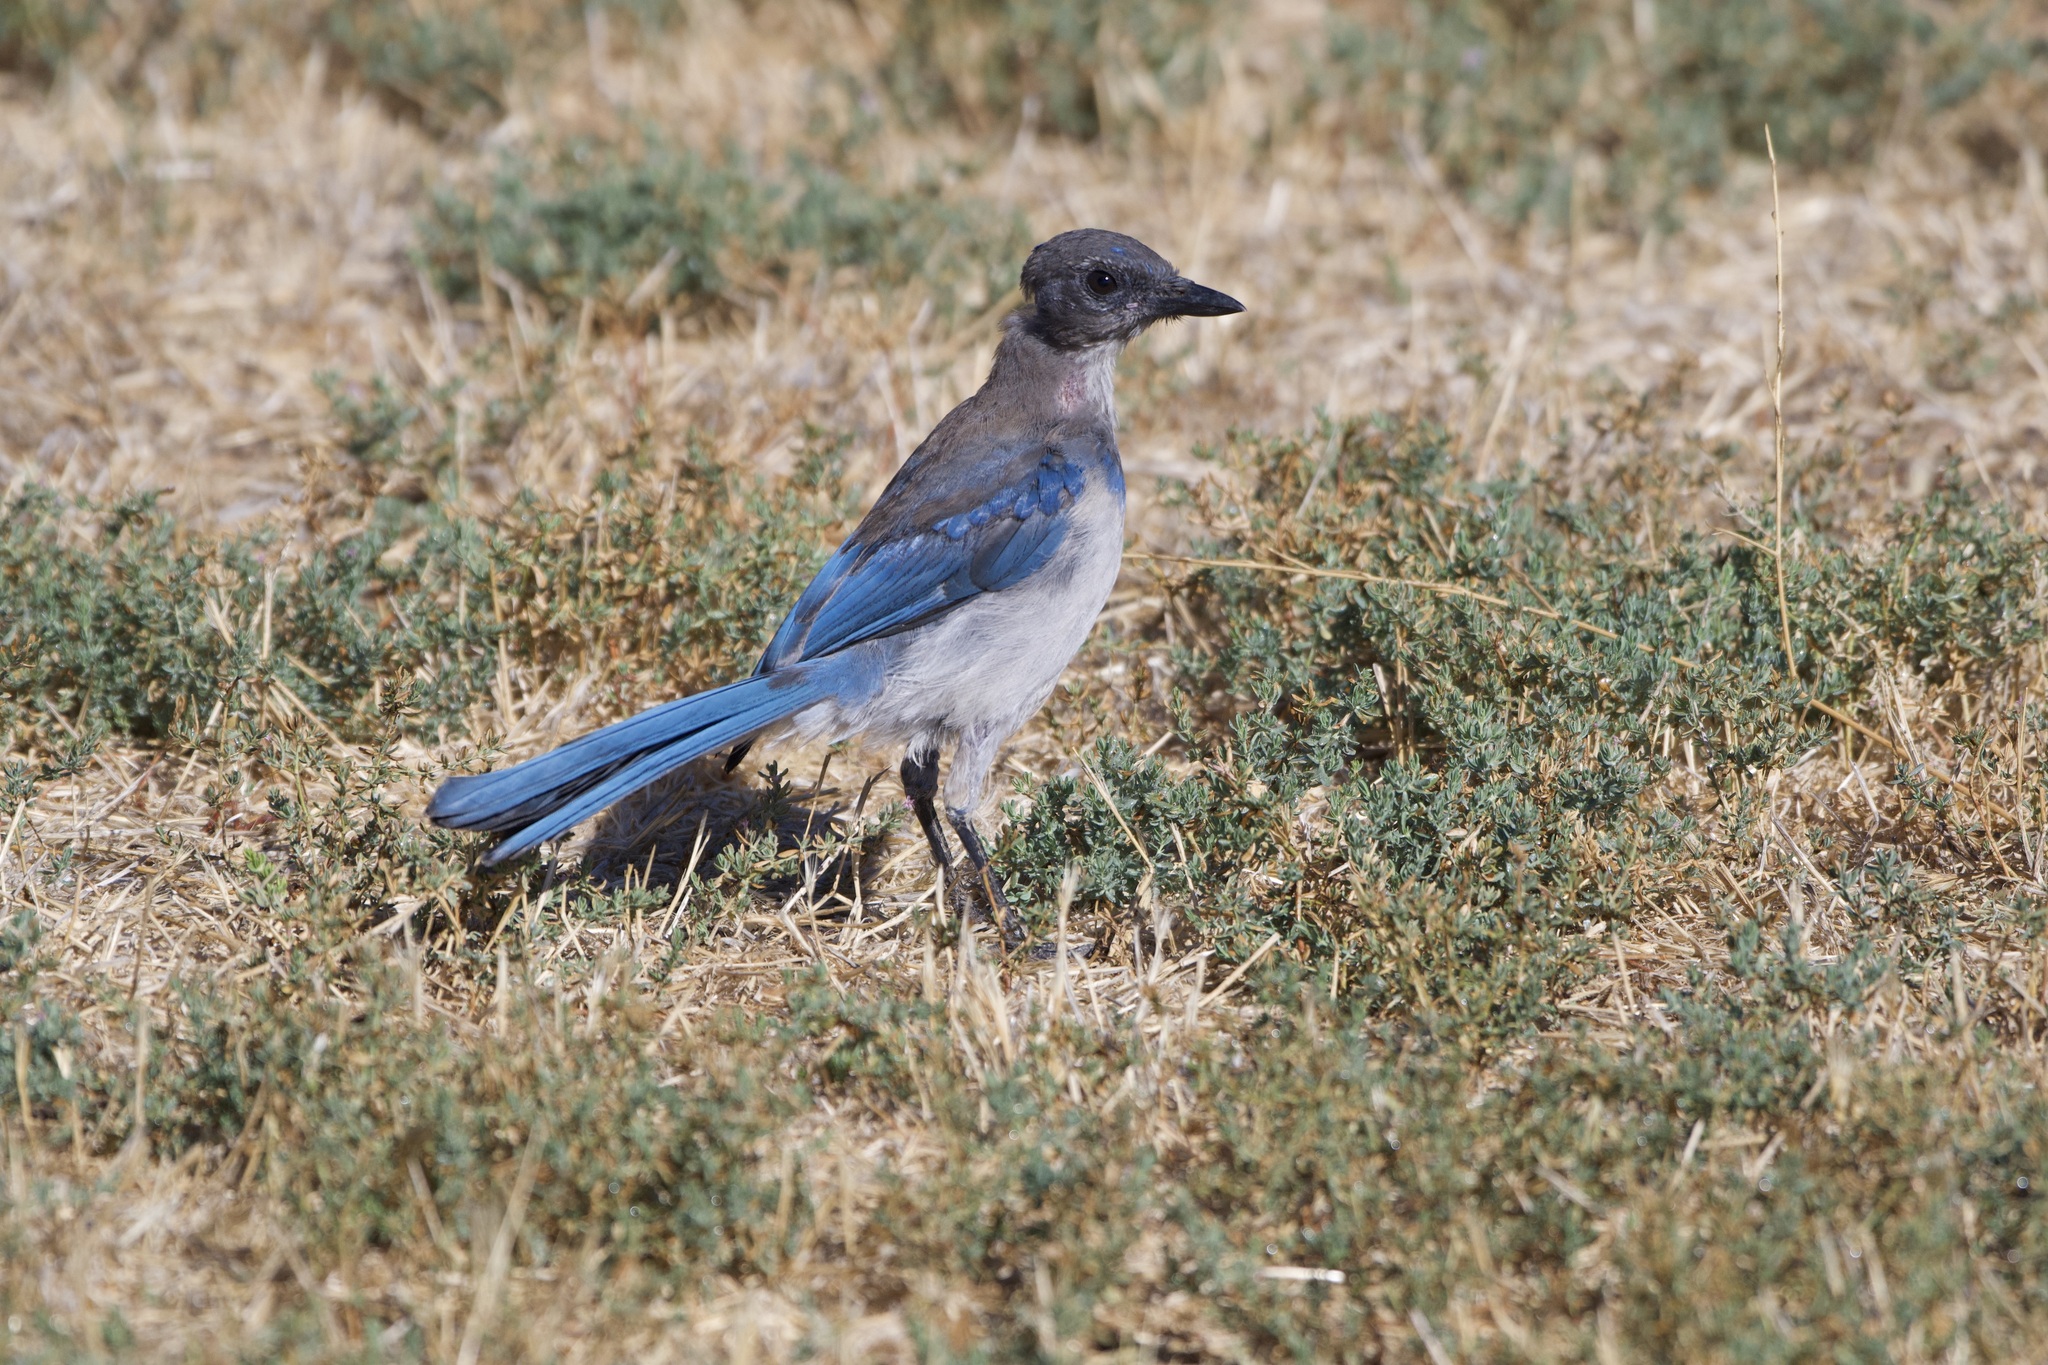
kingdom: Animalia
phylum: Chordata
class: Aves
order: Passeriformes
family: Corvidae
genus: Aphelocoma
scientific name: Aphelocoma californica
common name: California scrub-jay
